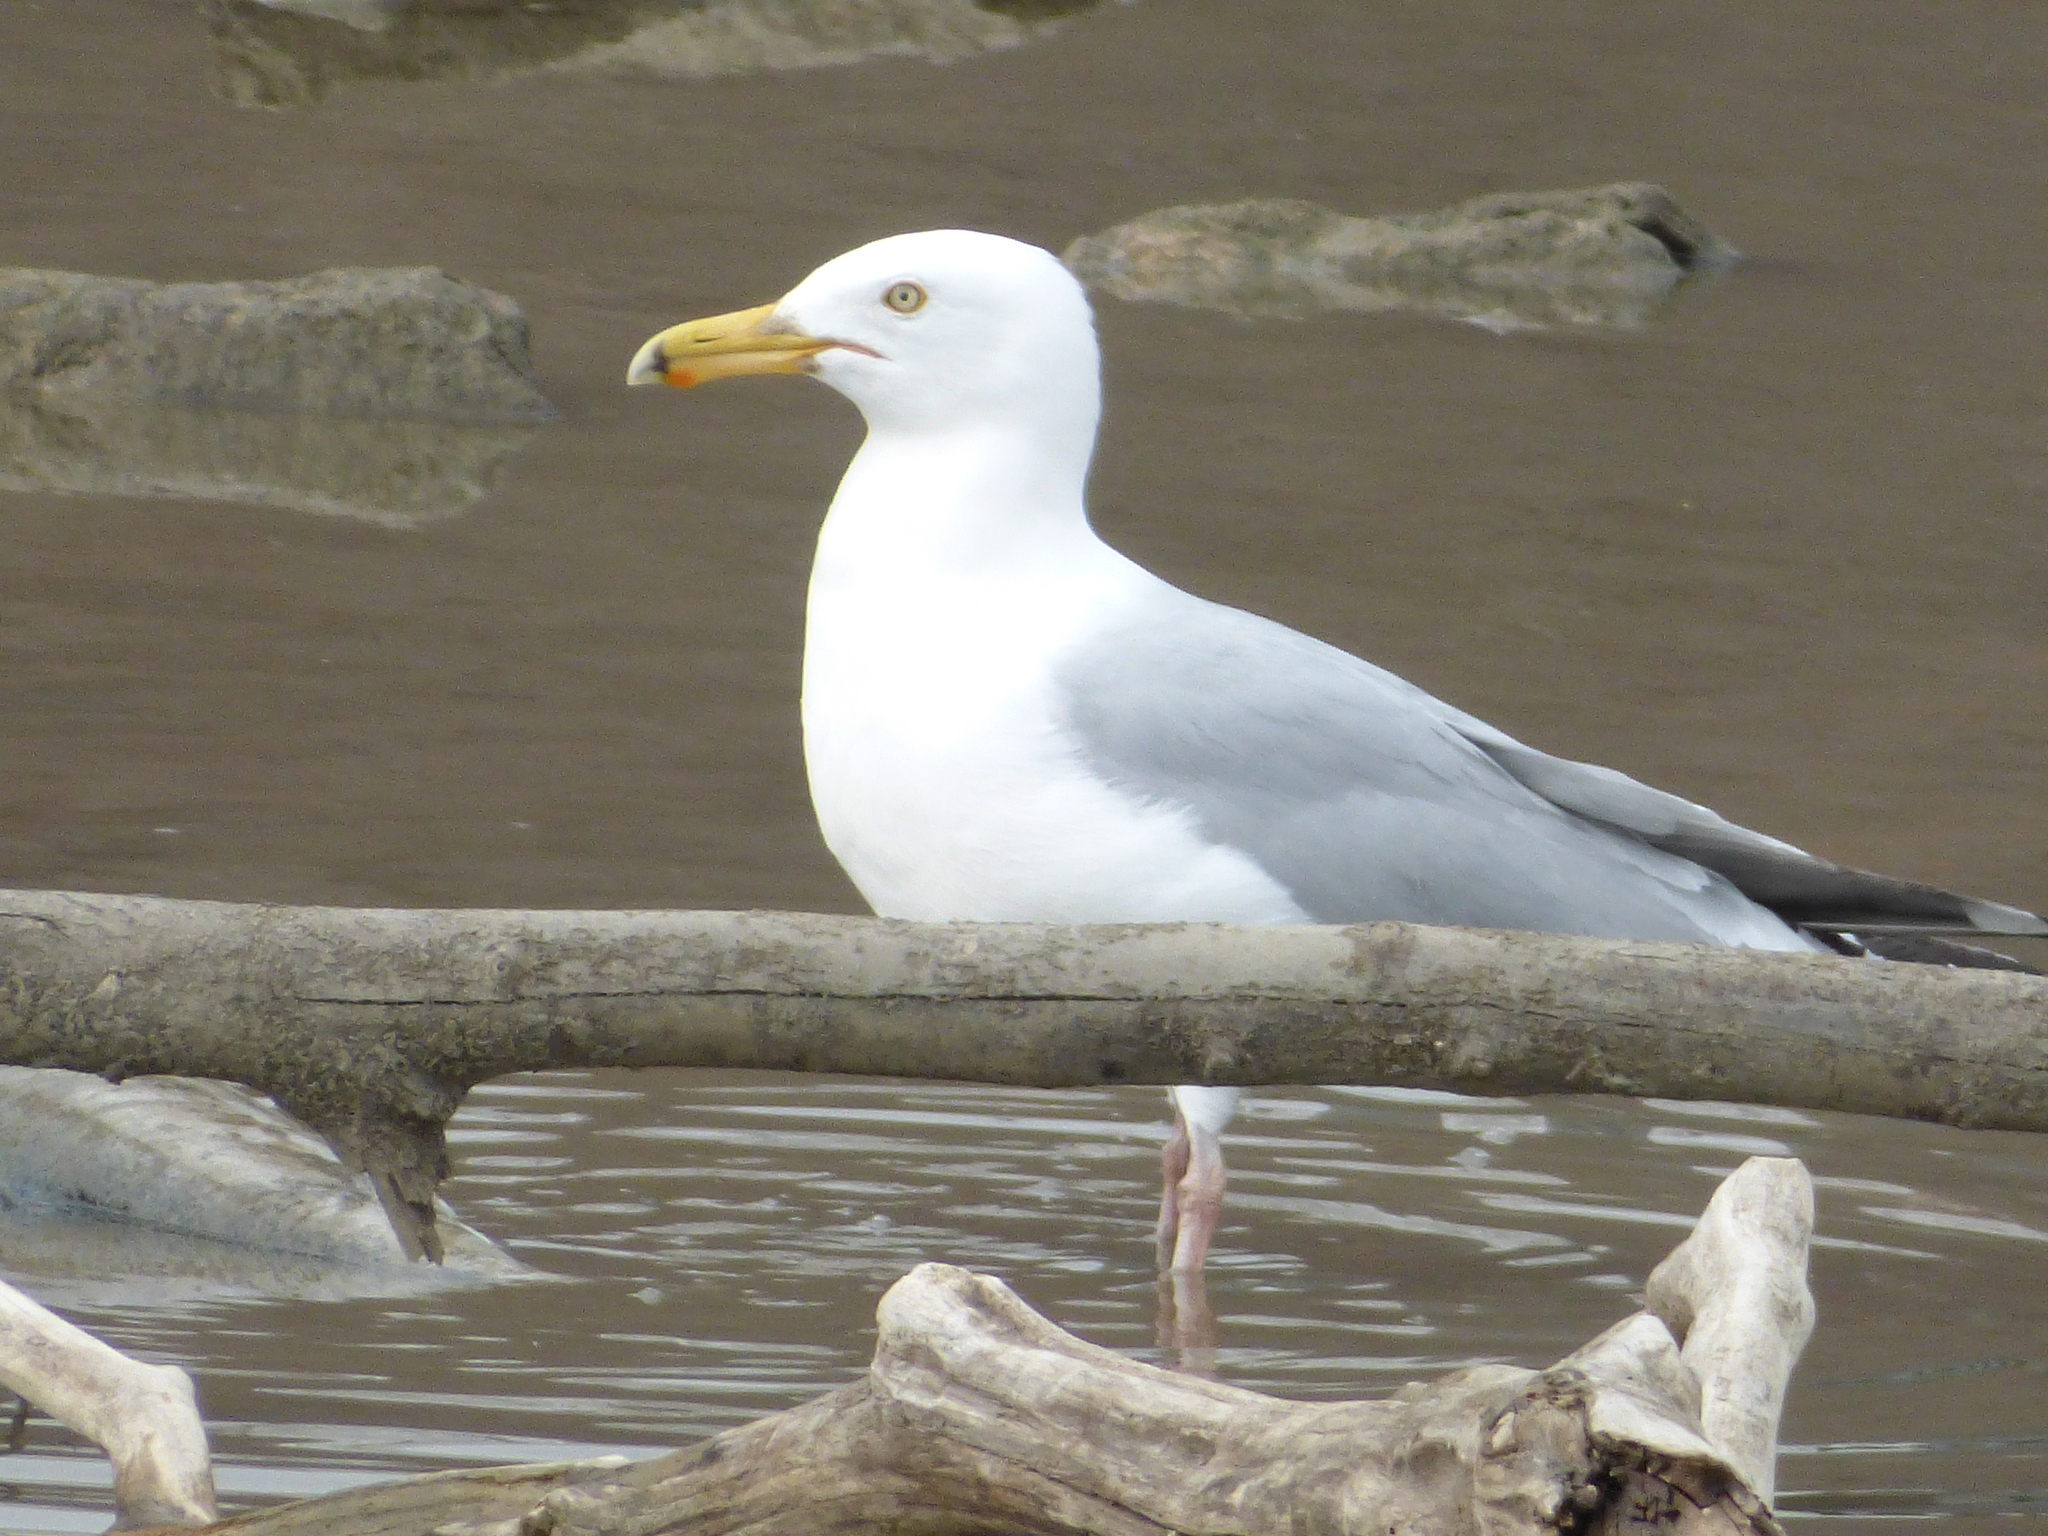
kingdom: Animalia
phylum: Chordata
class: Aves
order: Charadriiformes
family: Laridae
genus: Larus
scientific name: Larus argentatus
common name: Herring gull
